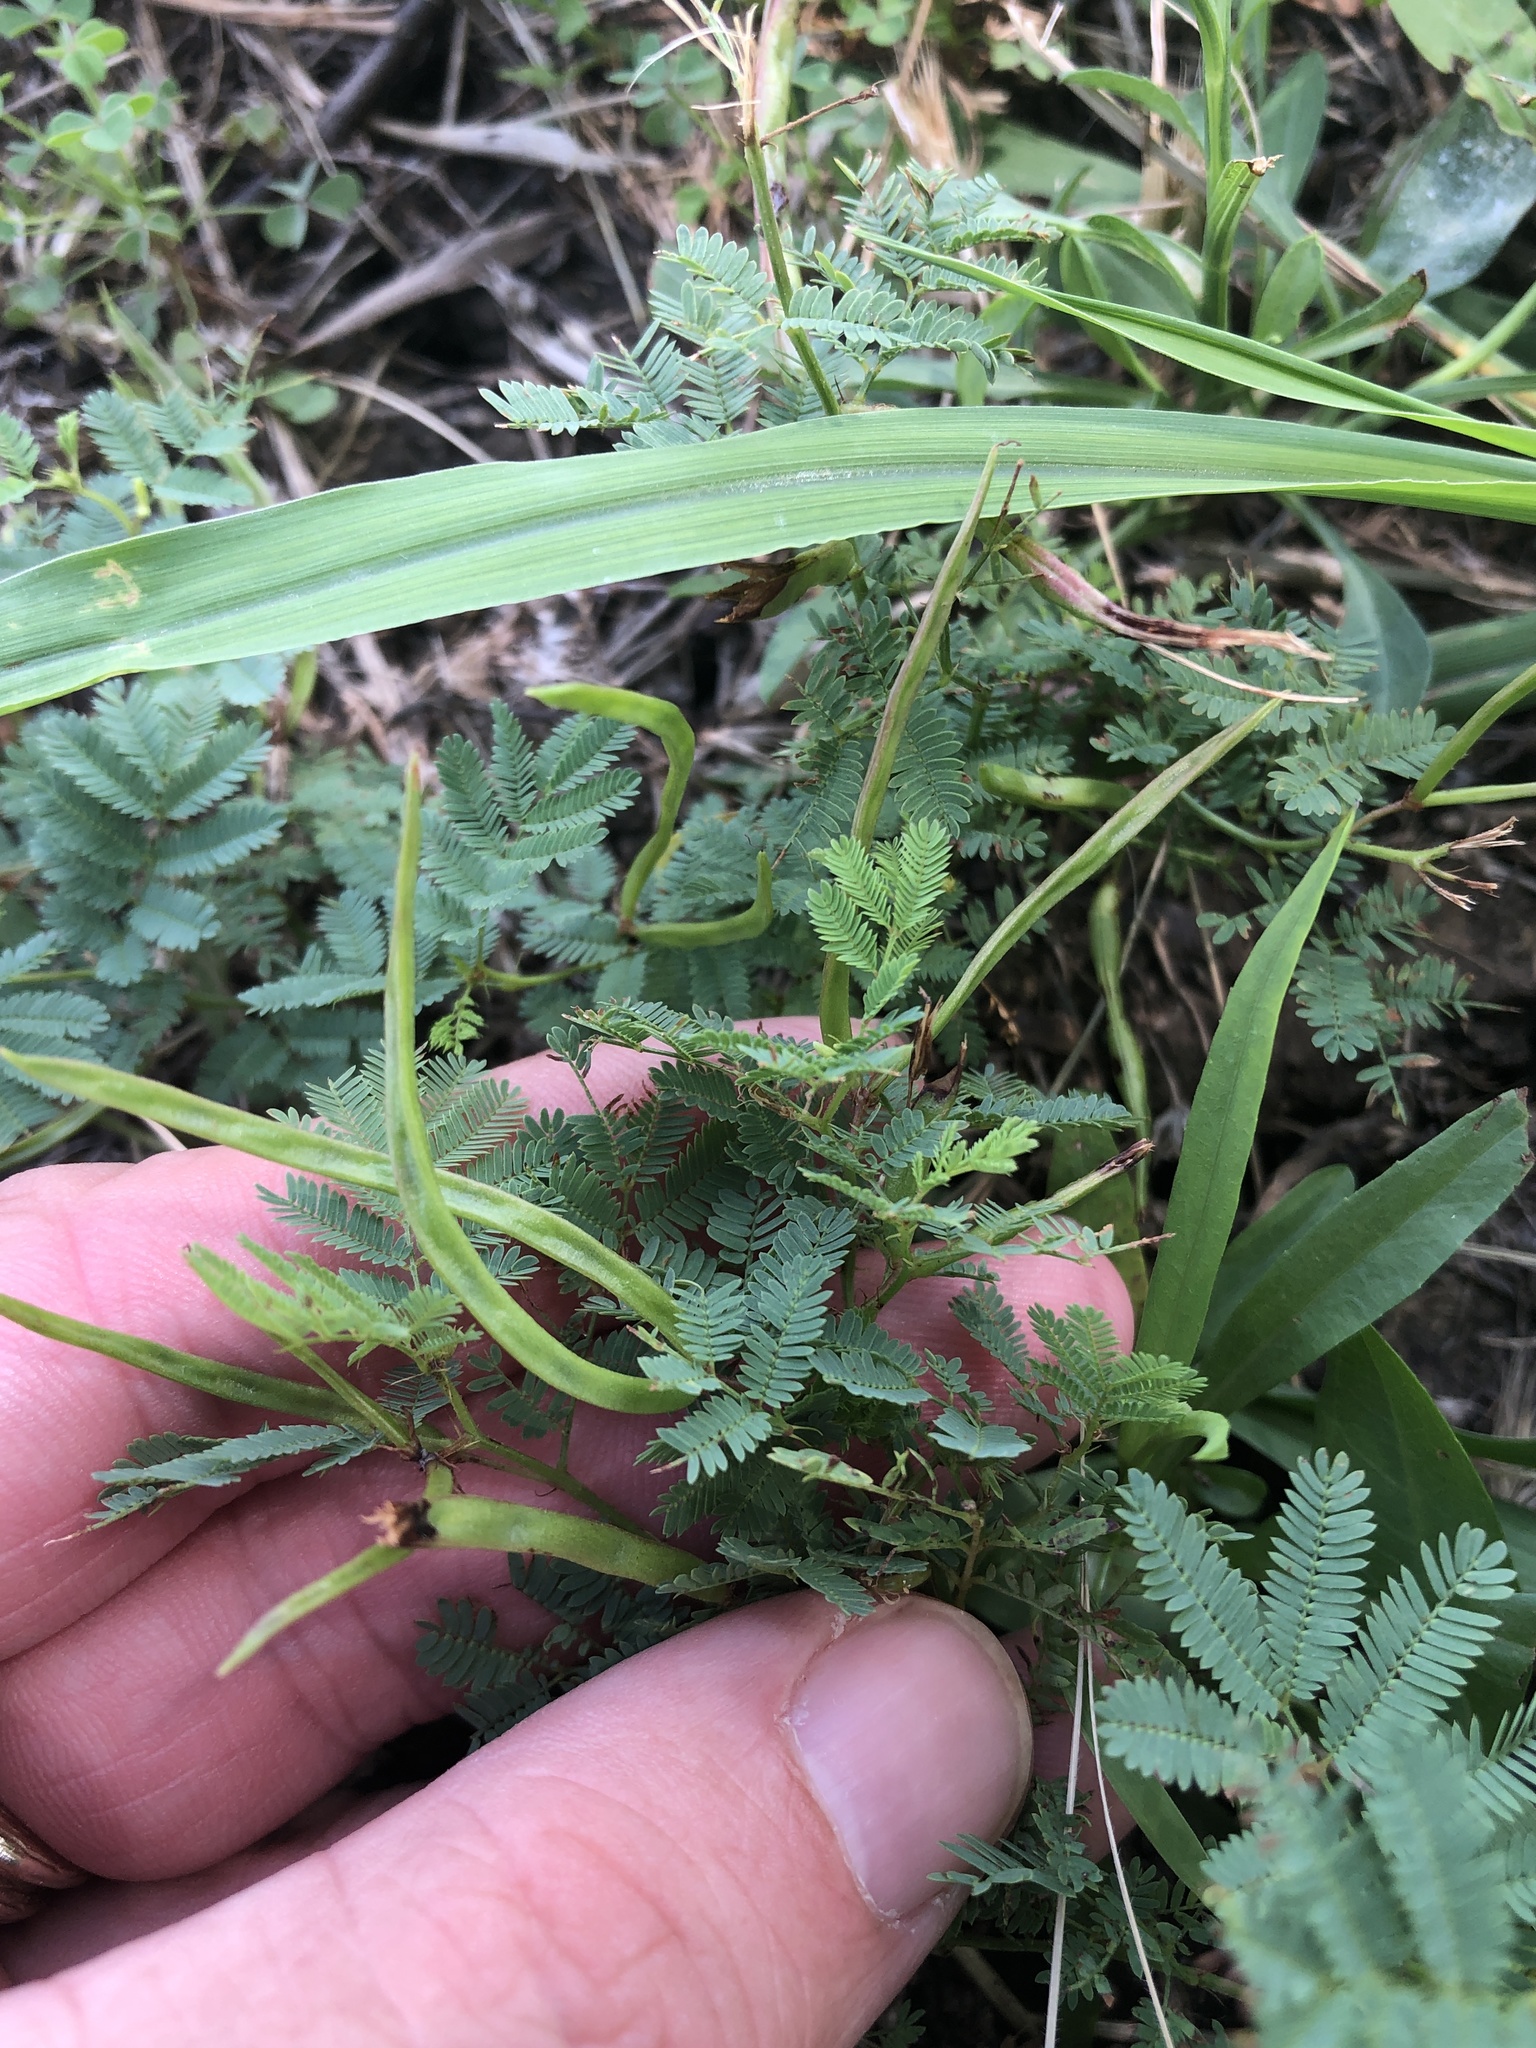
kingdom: Plantae
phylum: Tracheophyta
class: Magnoliopsida
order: Fabales
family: Fabaceae
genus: Desmanthus
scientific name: Desmanthus leptolobus
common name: Prairie-mimosa
